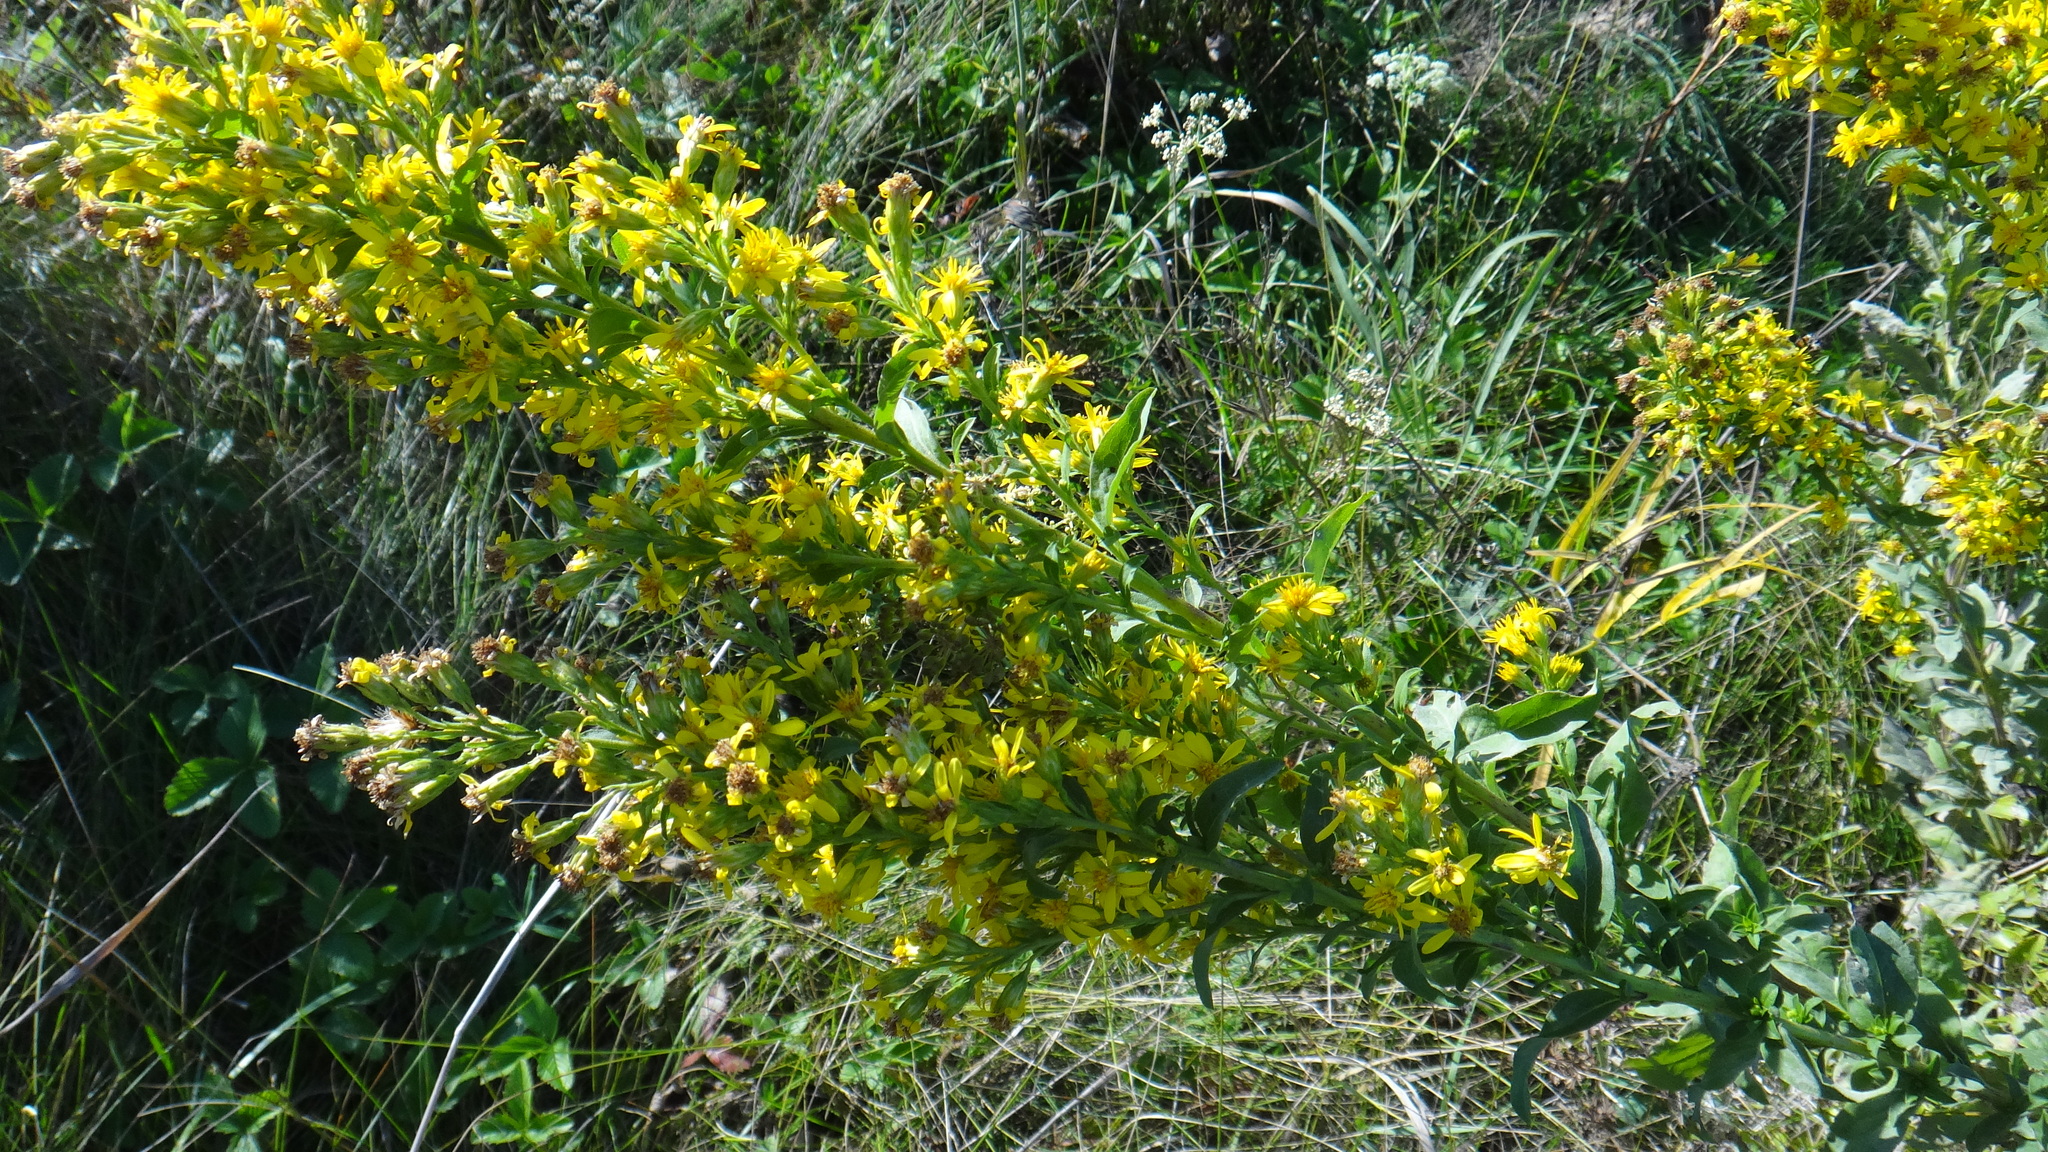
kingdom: Plantae
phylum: Tracheophyta
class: Magnoliopsida
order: Asterales
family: Asteraceae
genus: Solidago
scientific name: Solidago virgaurea
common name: Goldenrod
